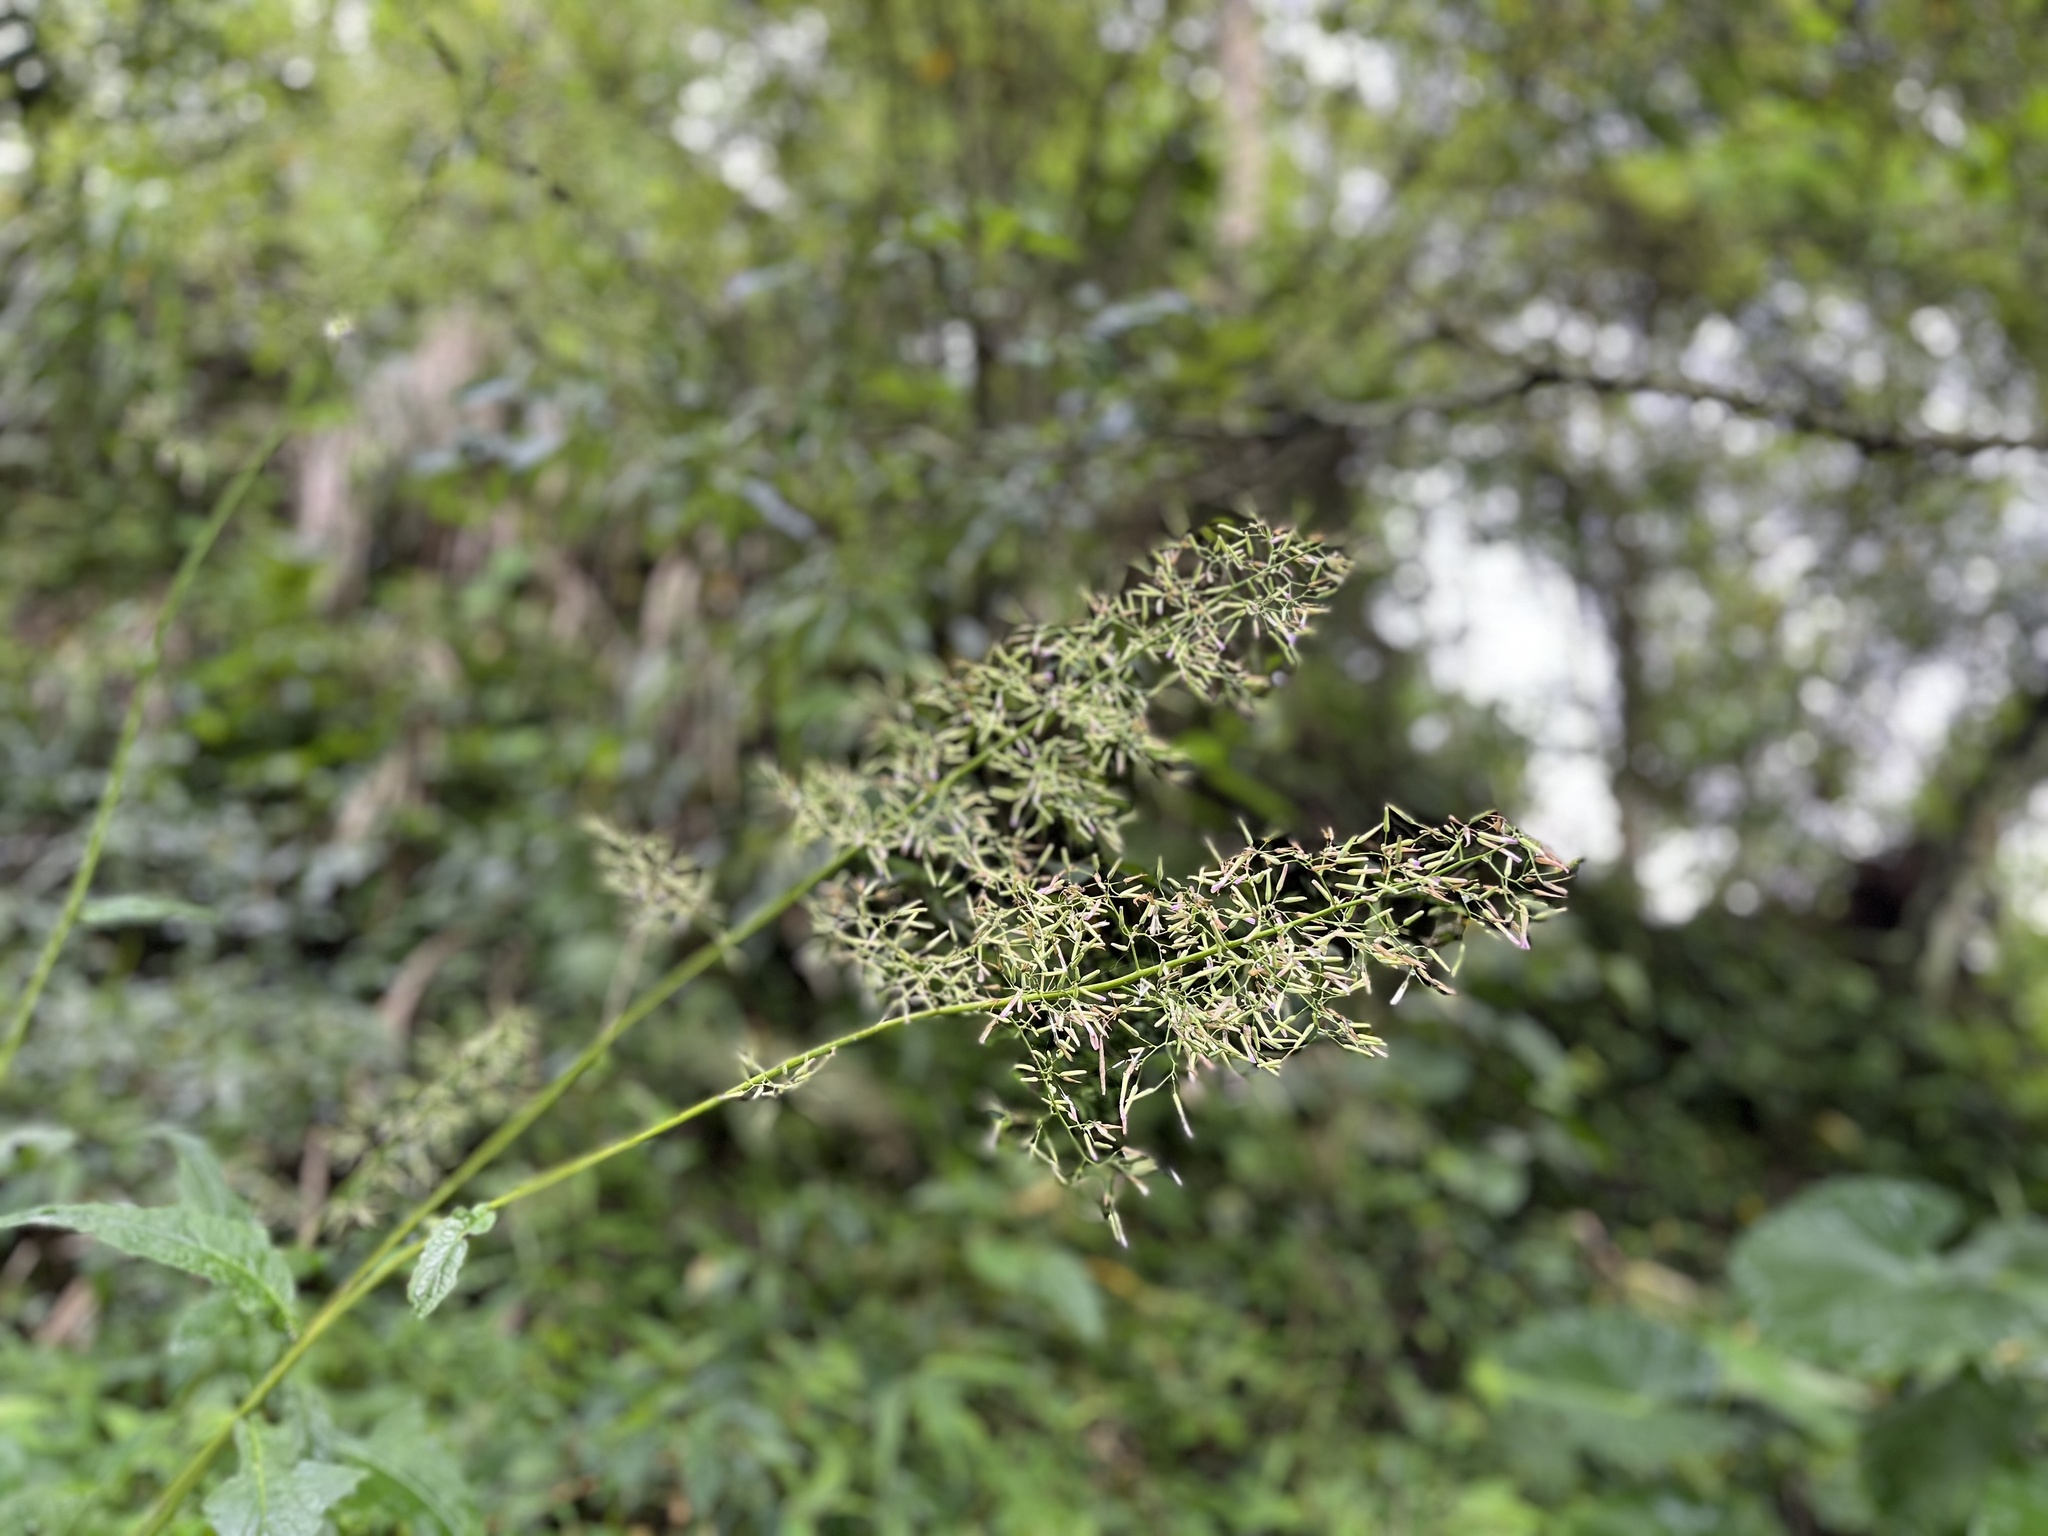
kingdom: Plantae
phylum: Tracheophyta
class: Magnoliopsida
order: Asterales
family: Asteraceae
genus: Paraprenanthes
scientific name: Paraprenanthes sororia
